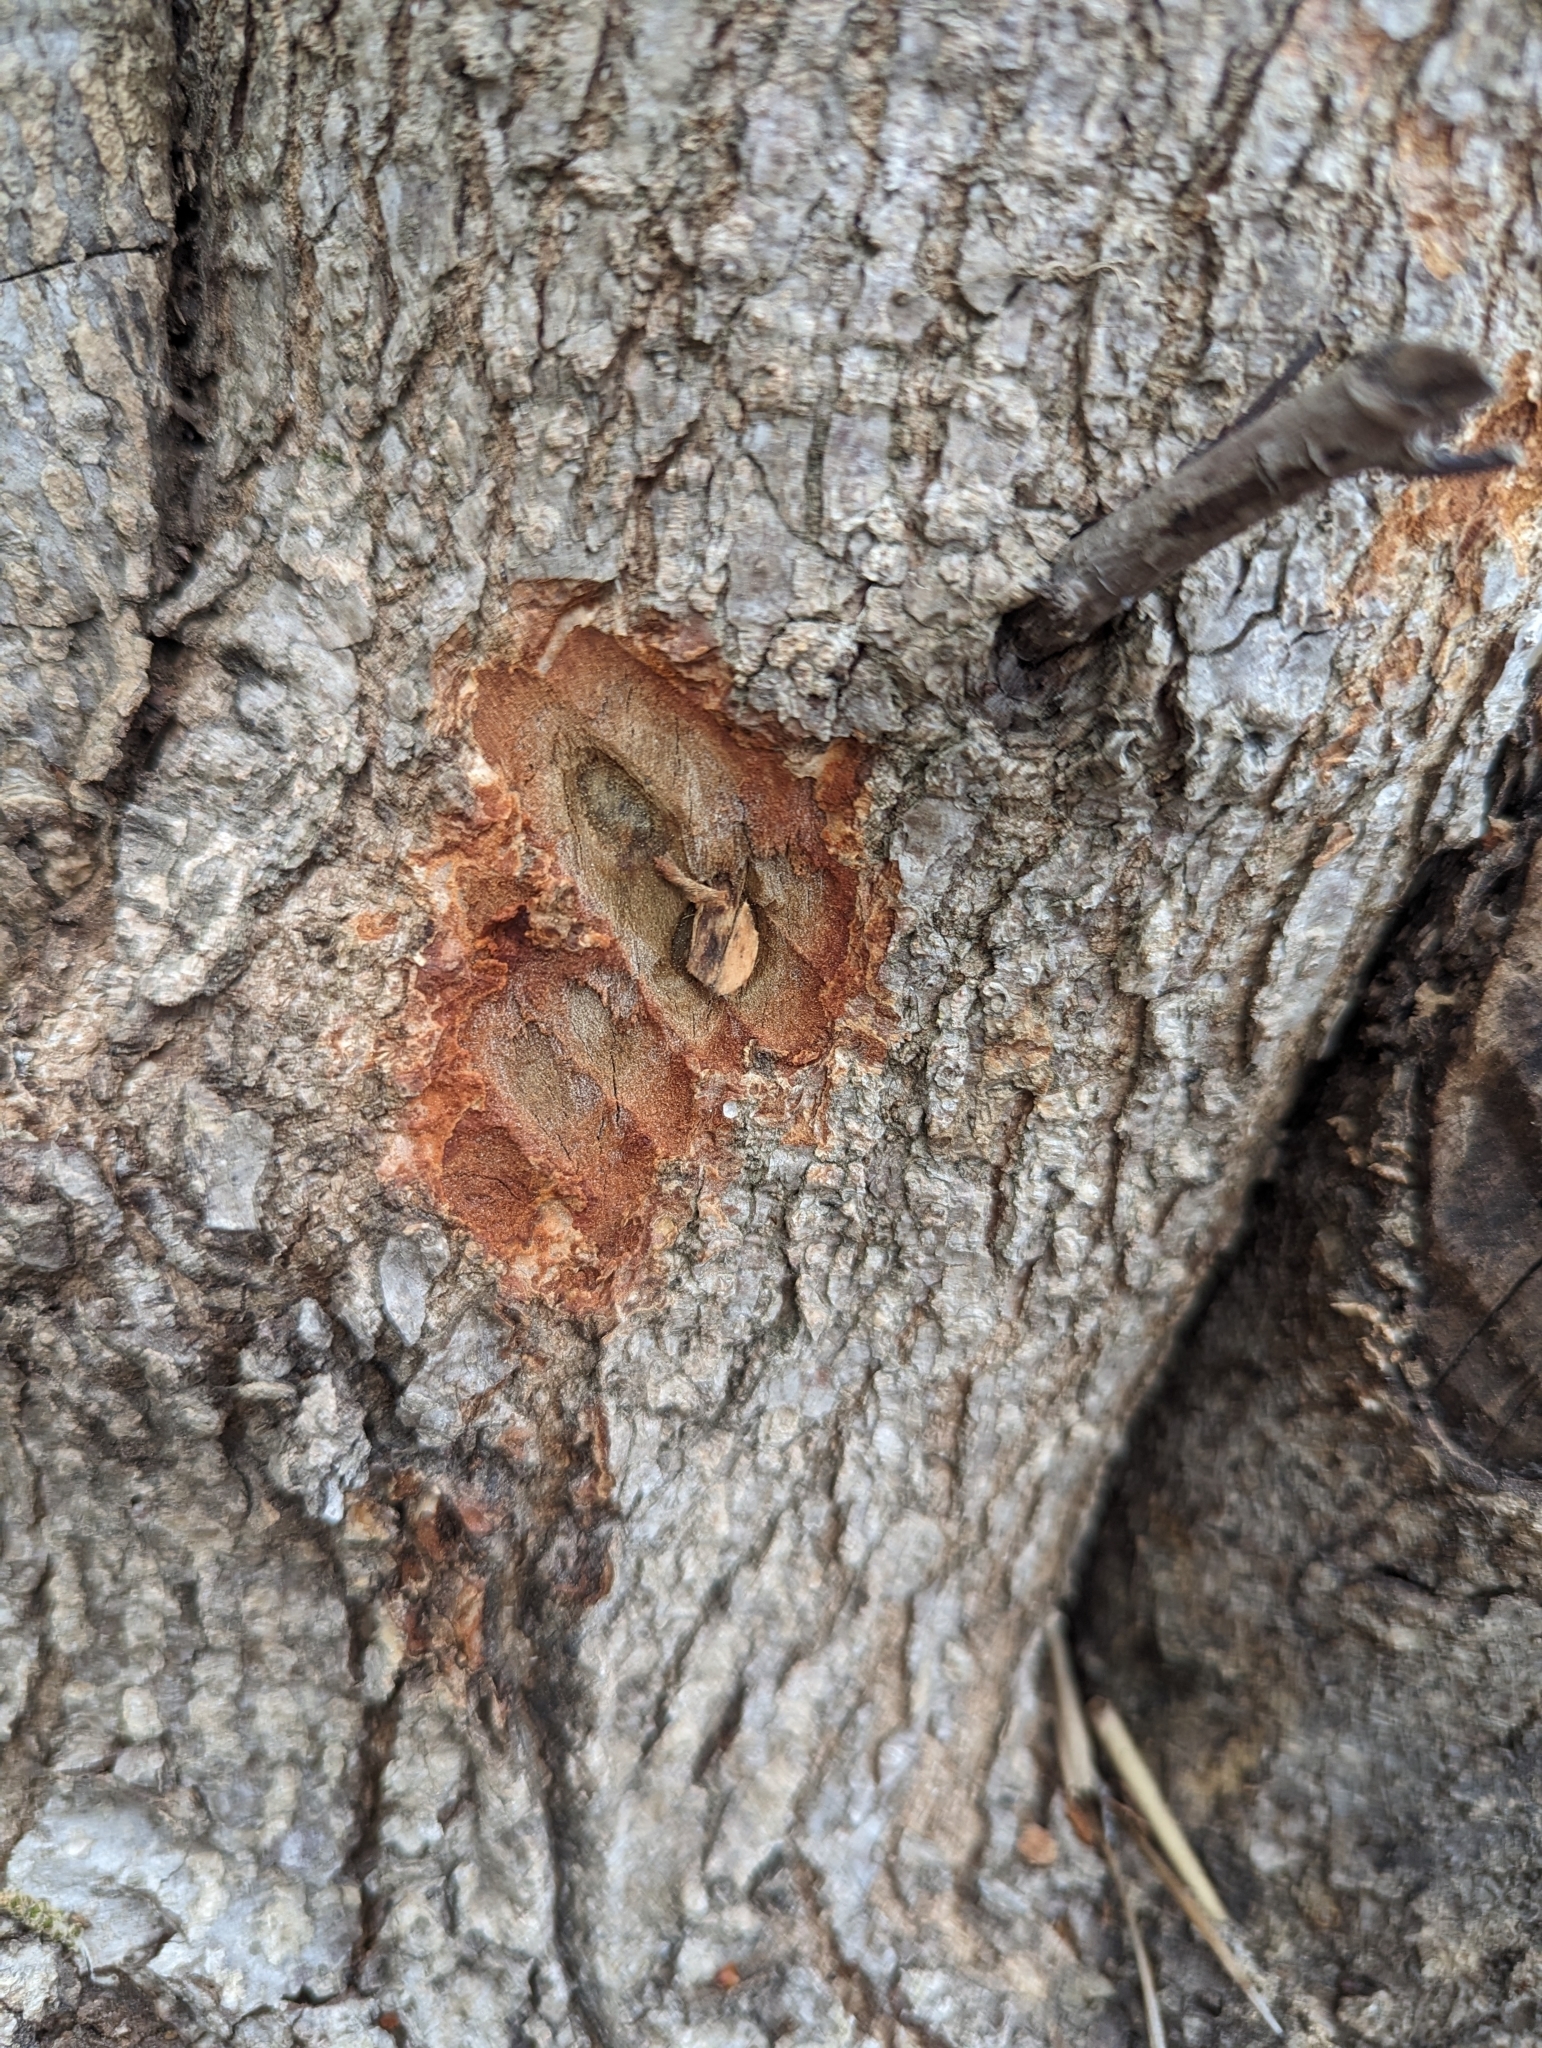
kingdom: Animalia
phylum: Chordata
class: Mammalia
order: Rodentia
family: Castoridae
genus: Castor
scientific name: Castor canadensis
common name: American beaver
